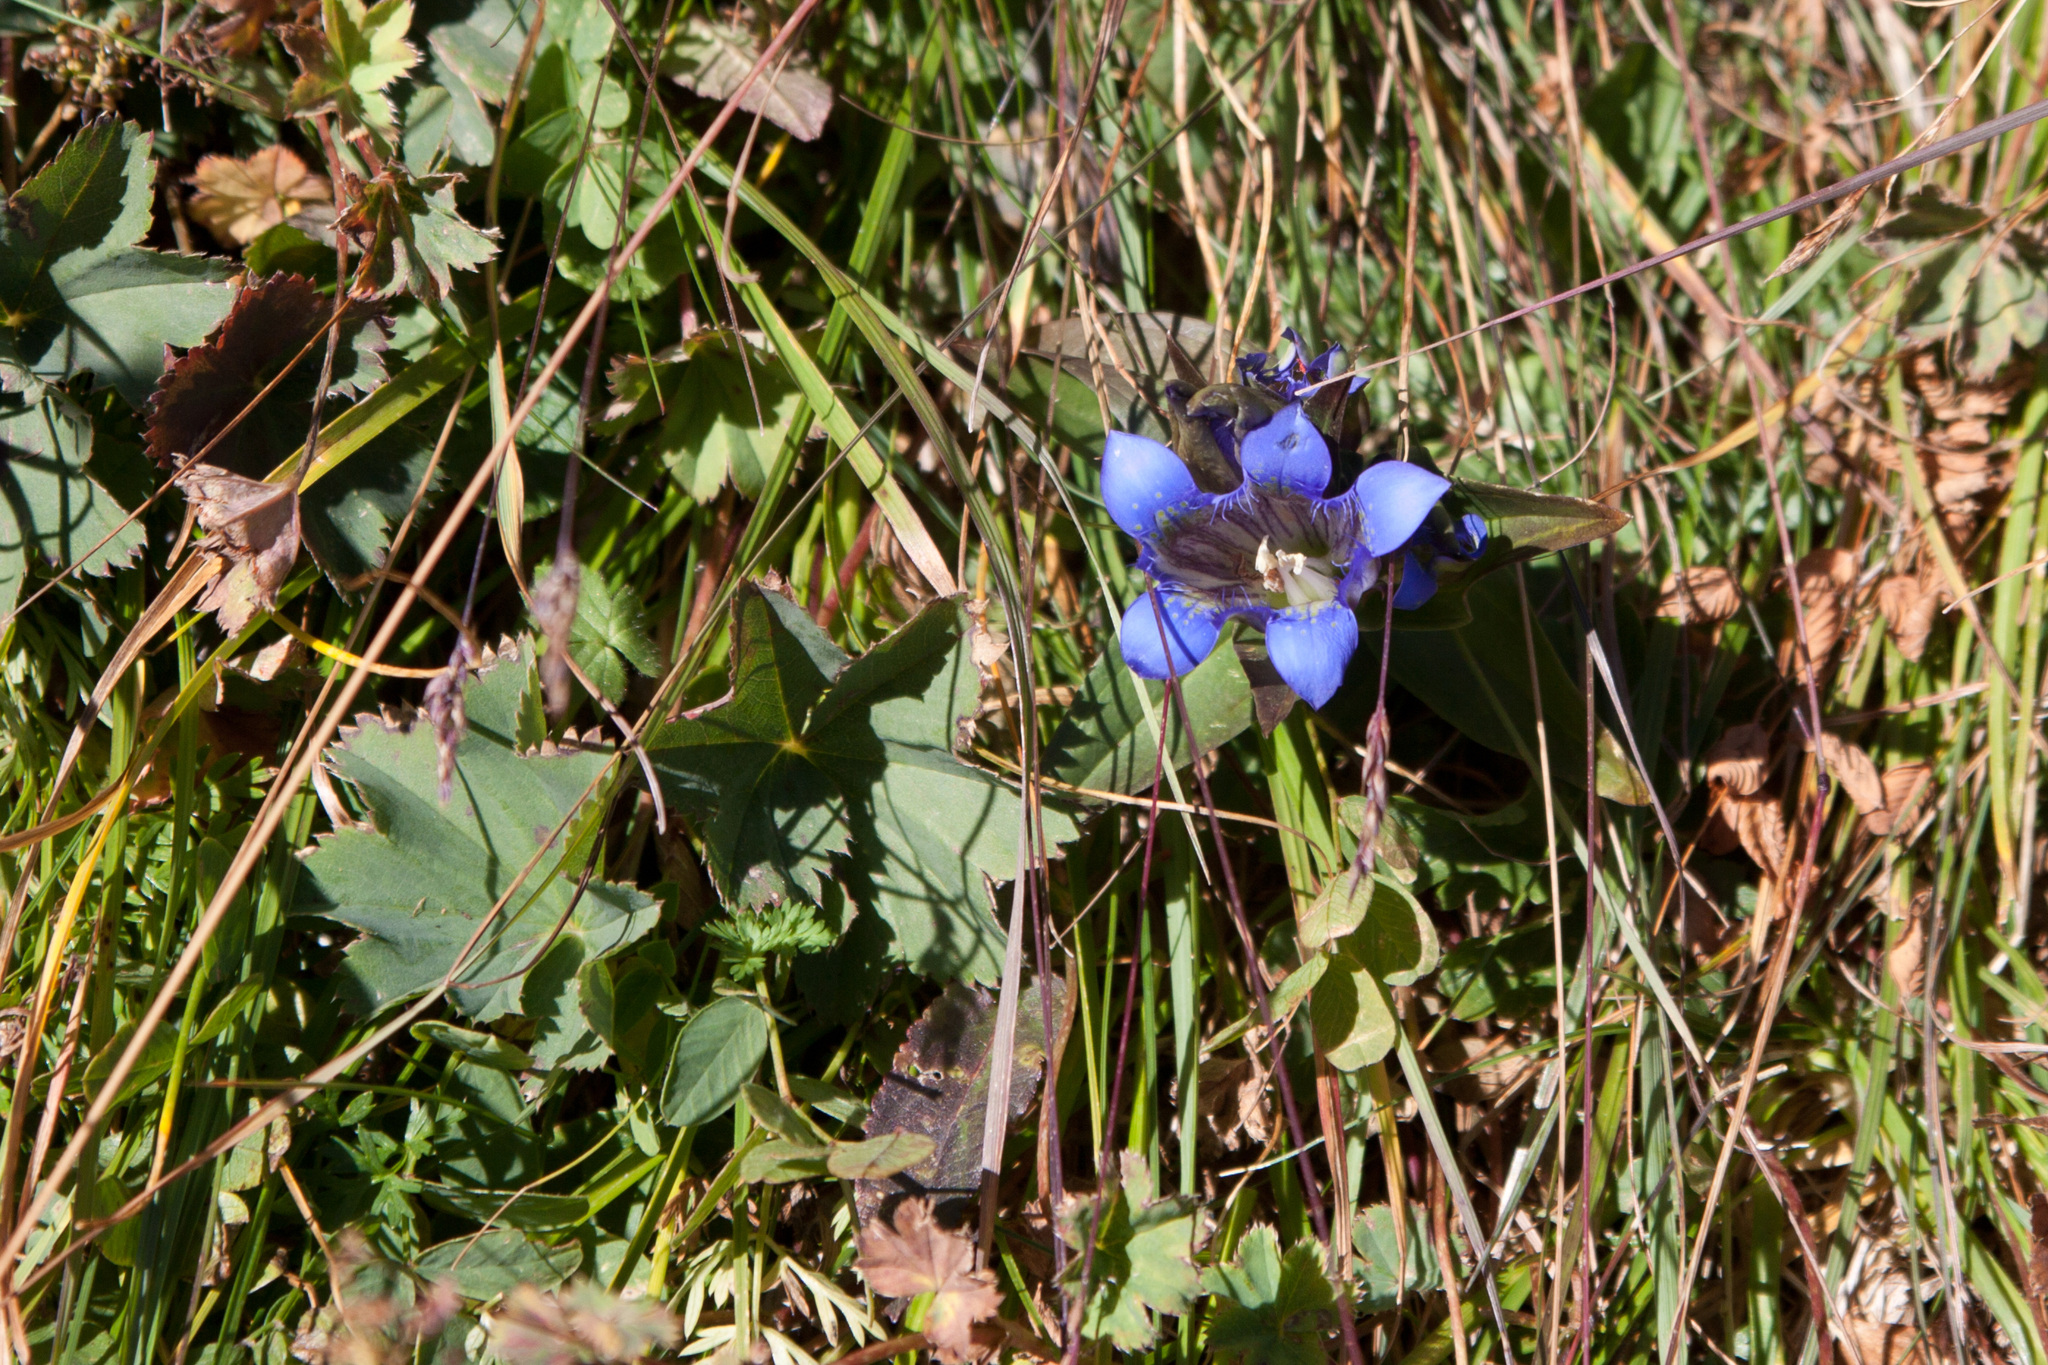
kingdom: Plantae
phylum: Tracheophyta
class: Magnoliopsida
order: Gentianales
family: Gentianaceae
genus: Gentiana
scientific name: Gentiana septemfida
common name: Crested gentian
